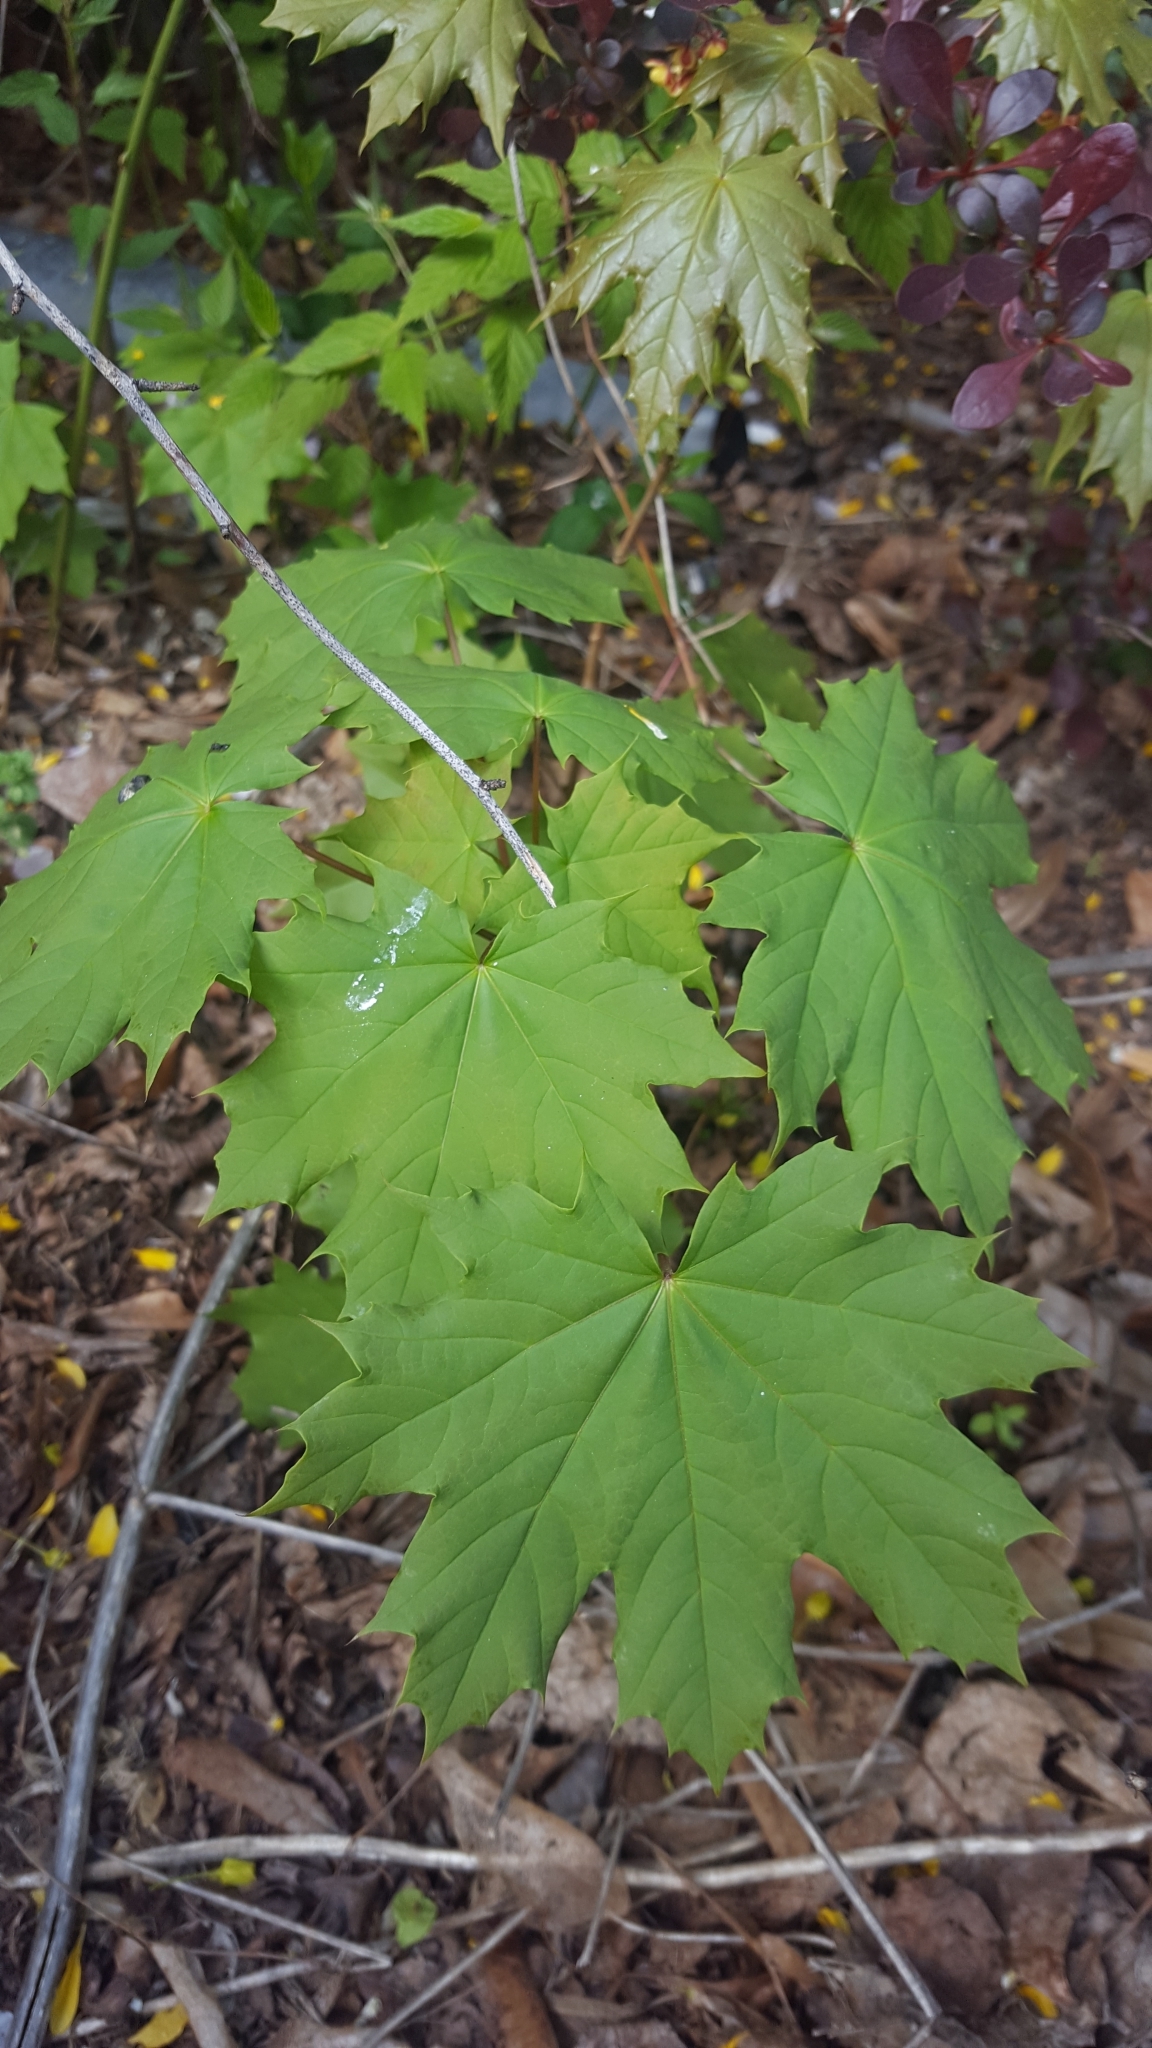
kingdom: Plantae
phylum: Tracheophyta
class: Magnoliopsida
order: Sapindales
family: Sapindaceae
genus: Acer
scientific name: Acer platanoides
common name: Norway maple
